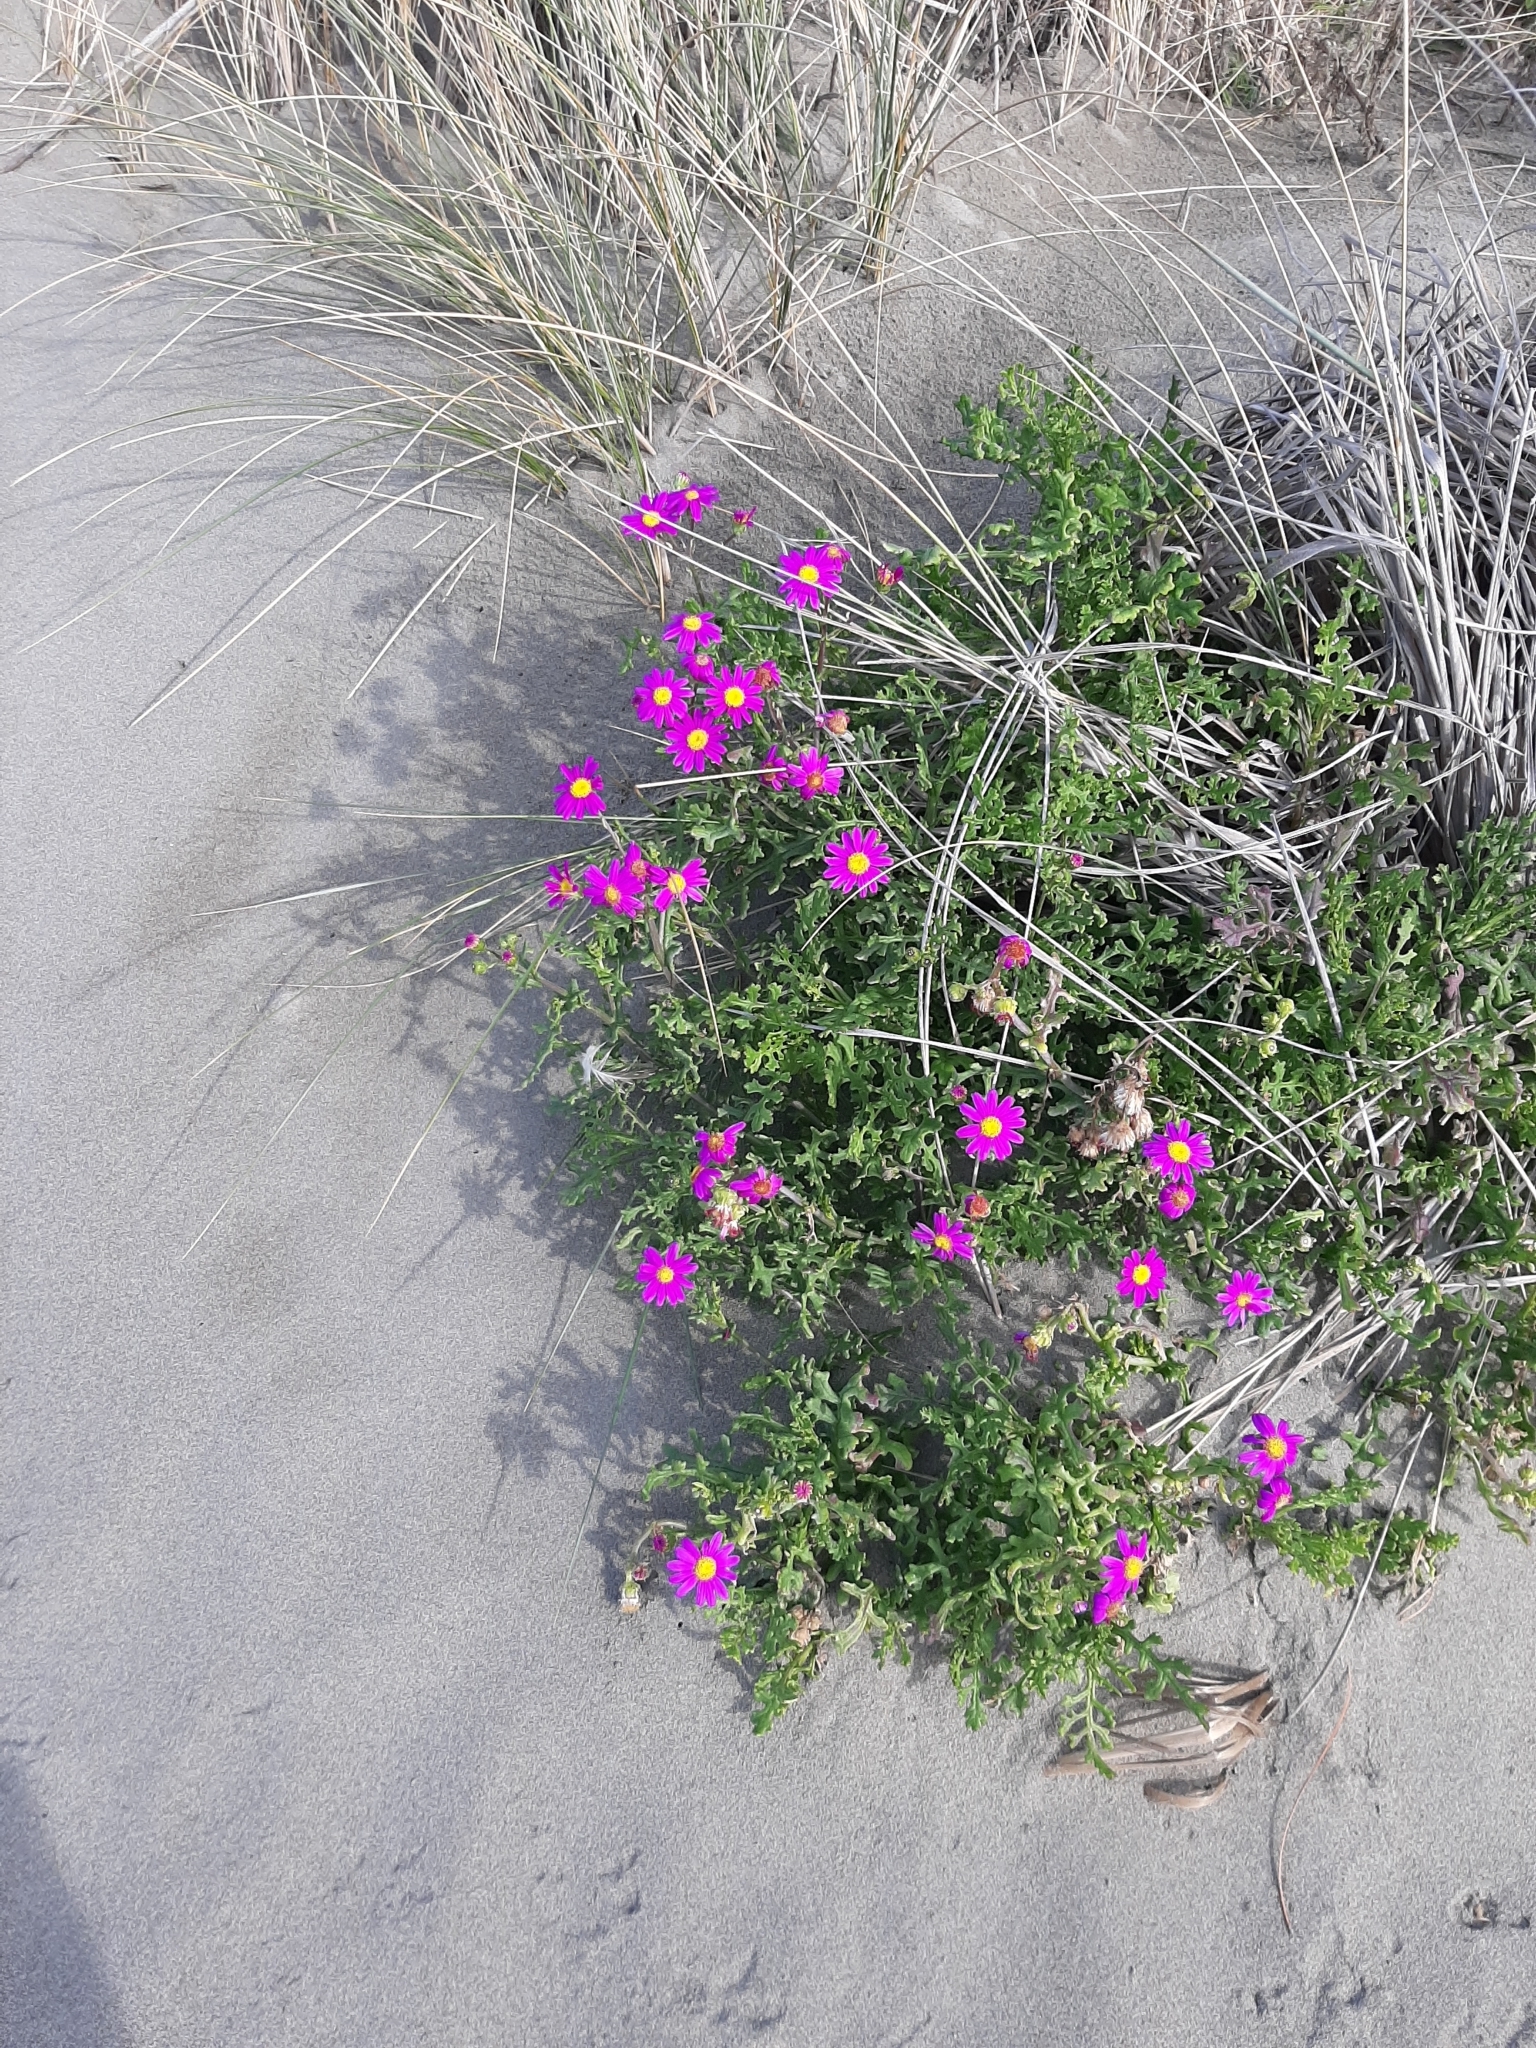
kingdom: Plantae
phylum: Tracheophyta
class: Magnoliopsida
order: Asterales
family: Asteraceae
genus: Senecio
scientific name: Senecio elegans
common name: Purple groundsel
